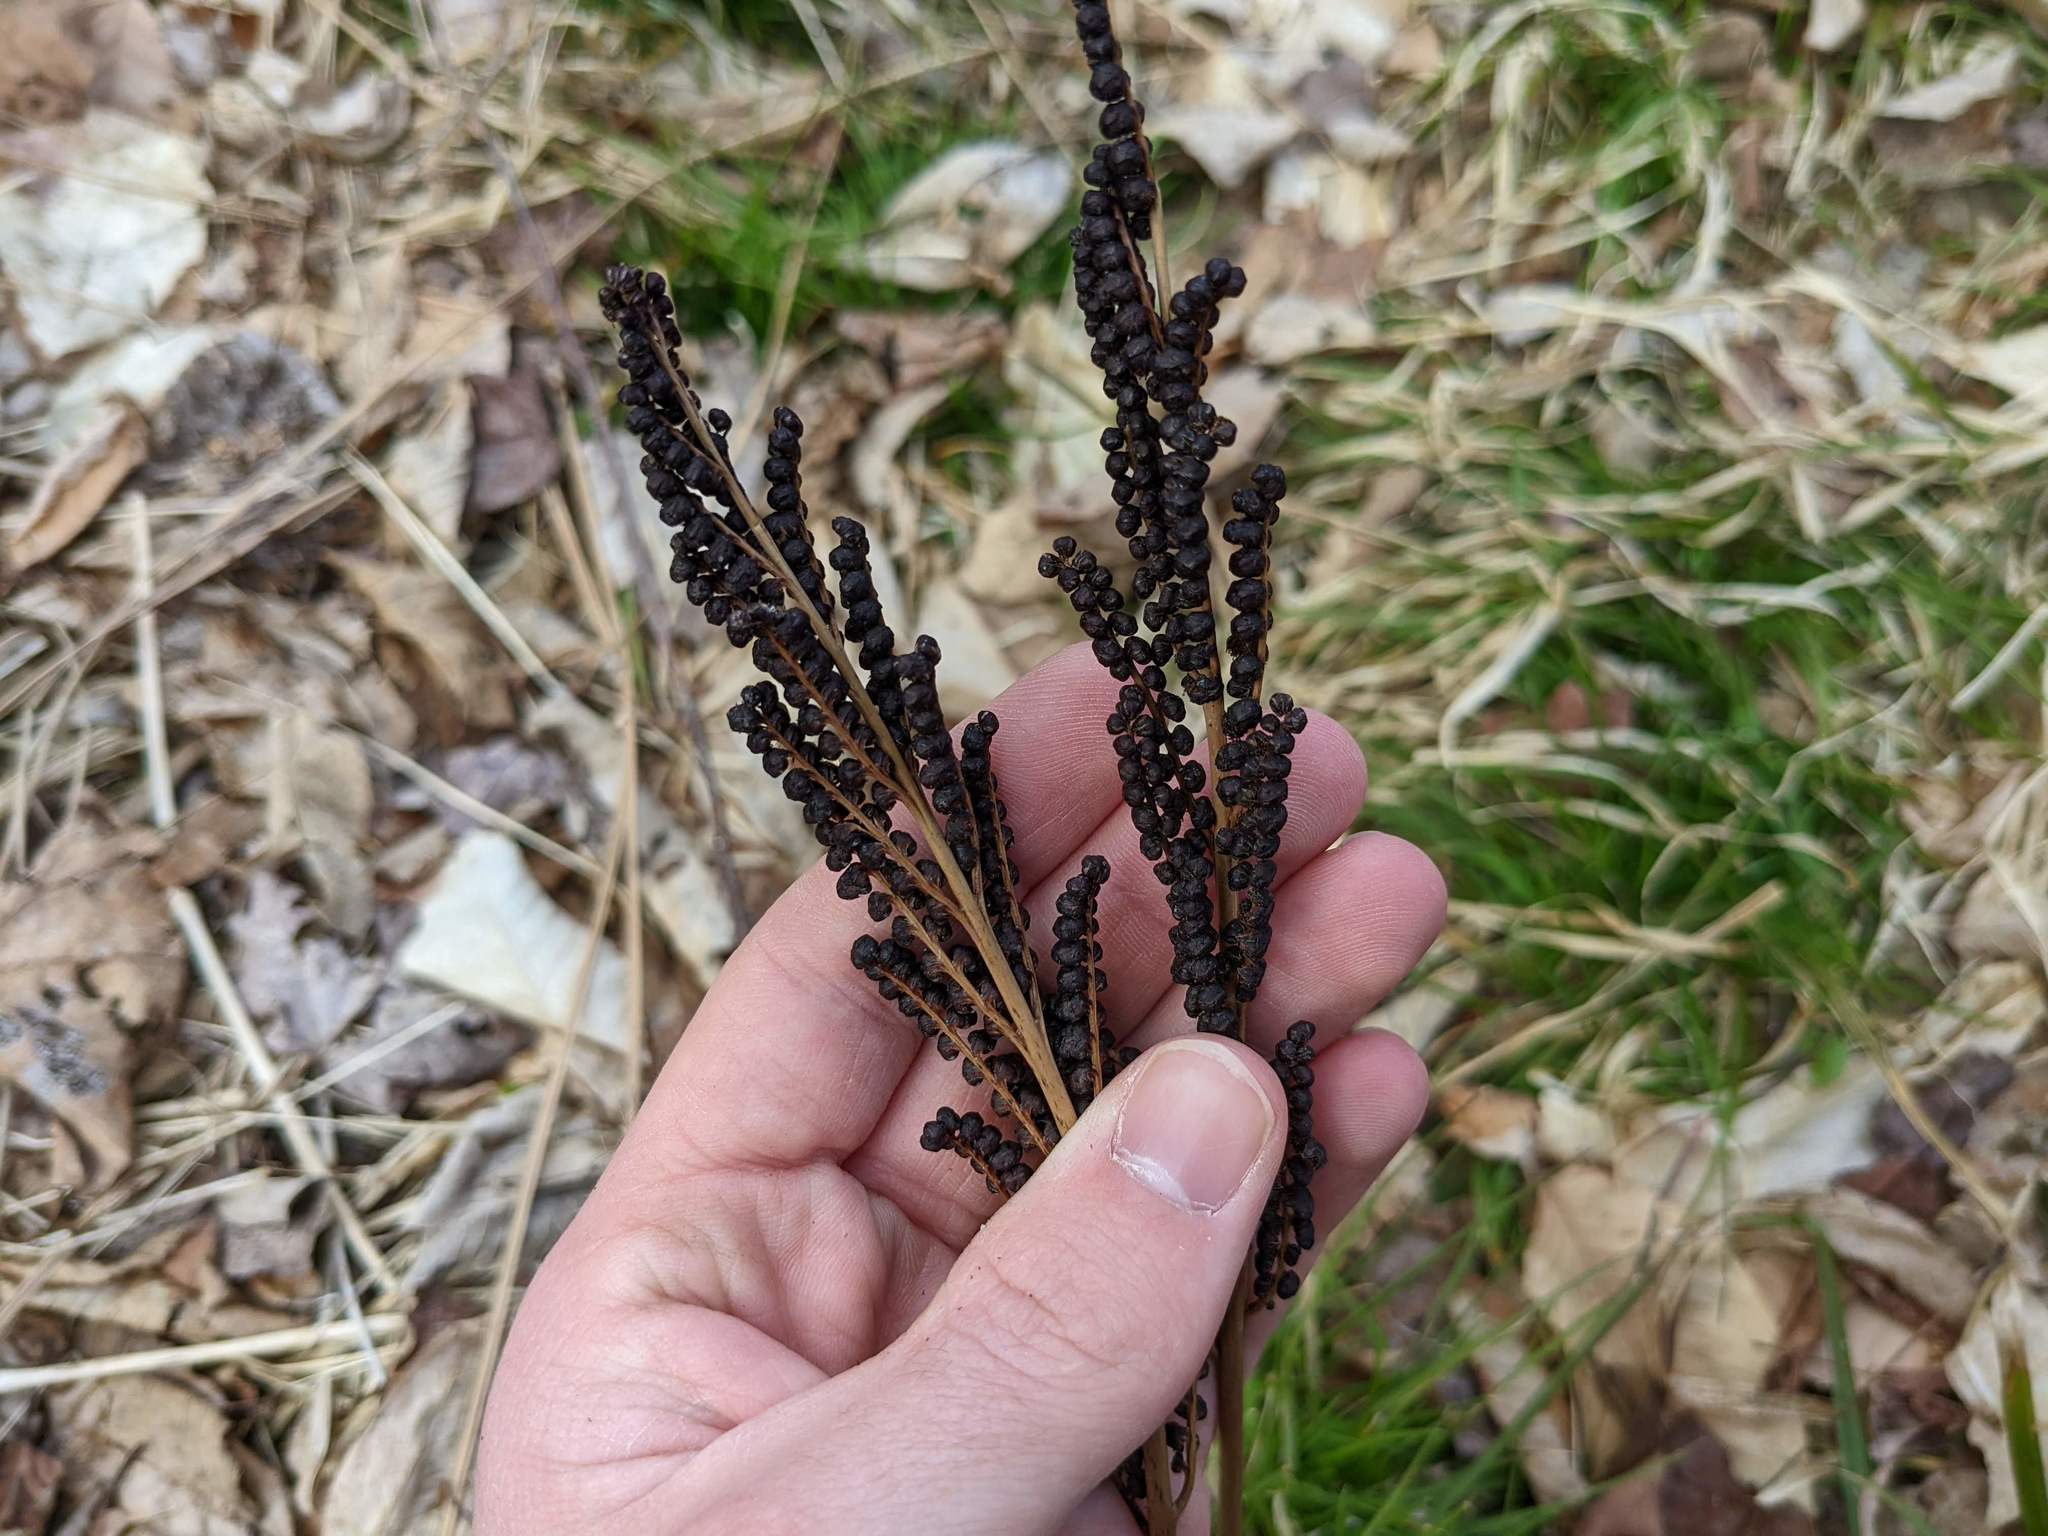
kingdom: Plantae
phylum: Tracheophyta
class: Polypodiopsida
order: Polypodiales
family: Onocleaceae
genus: Onoclea
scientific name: Onoclea sensibilis
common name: Sensitive fern
